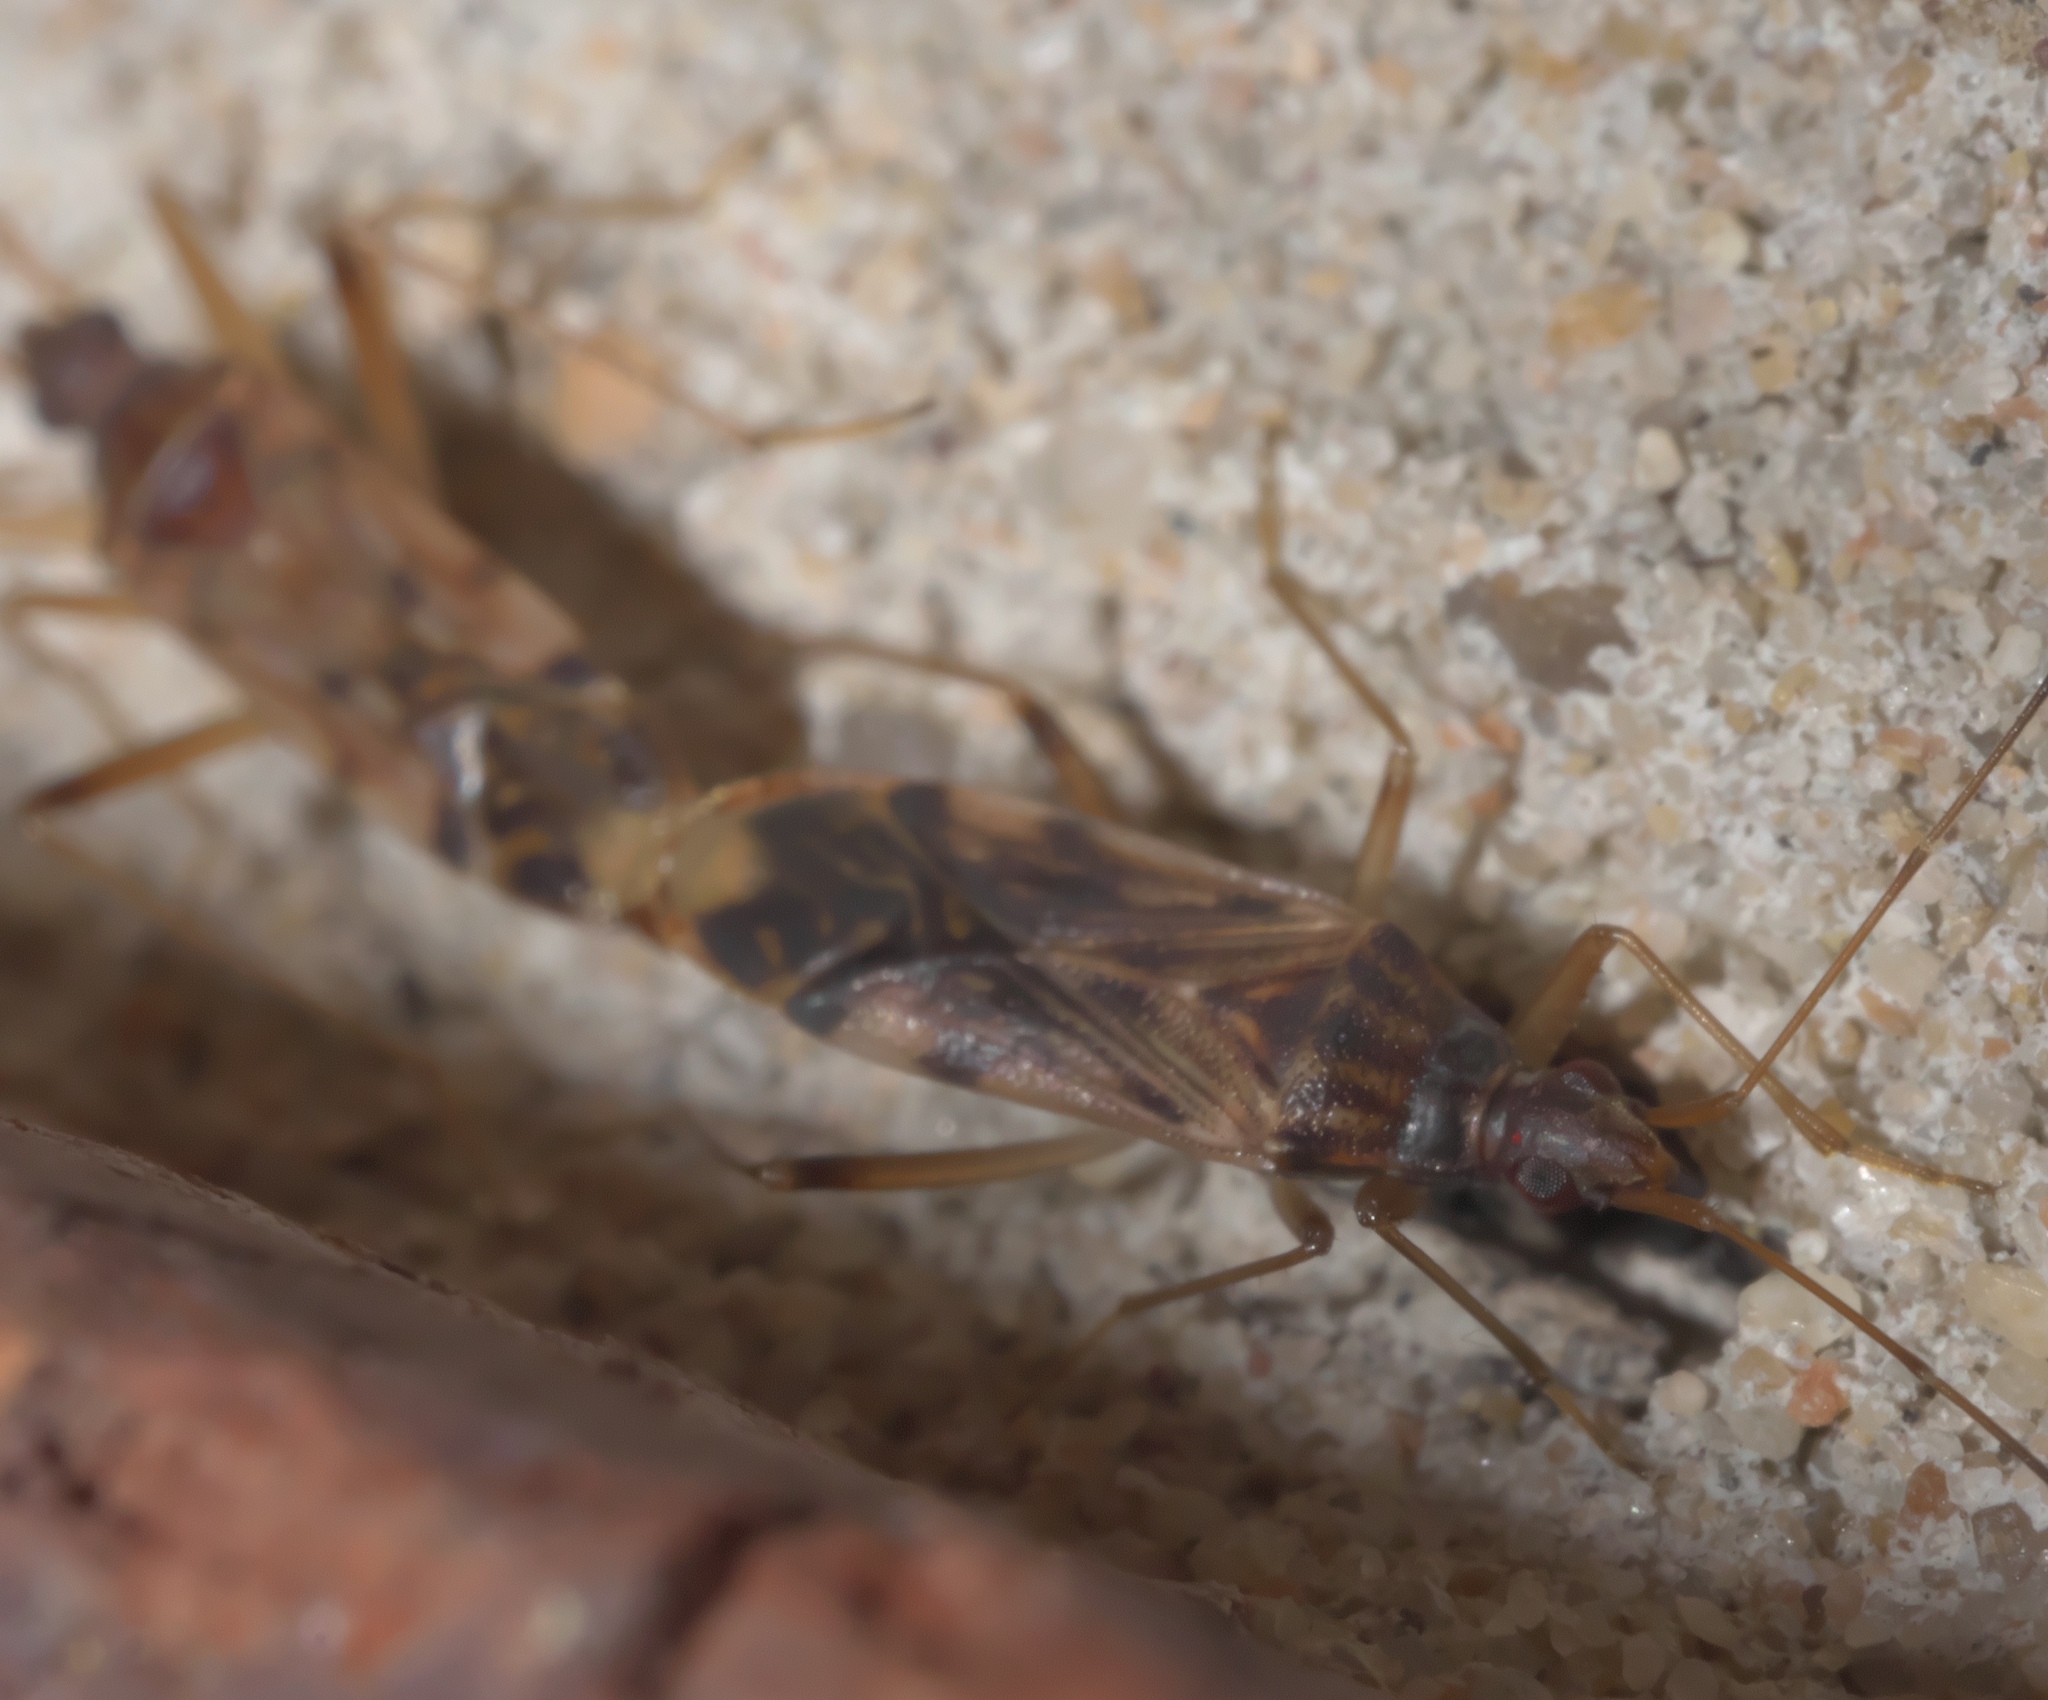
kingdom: Animalia
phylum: Arthropoda
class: Insecta
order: Hemiptera
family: Rhyparochromidae
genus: Ozophora
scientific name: Ozophora depicturata
